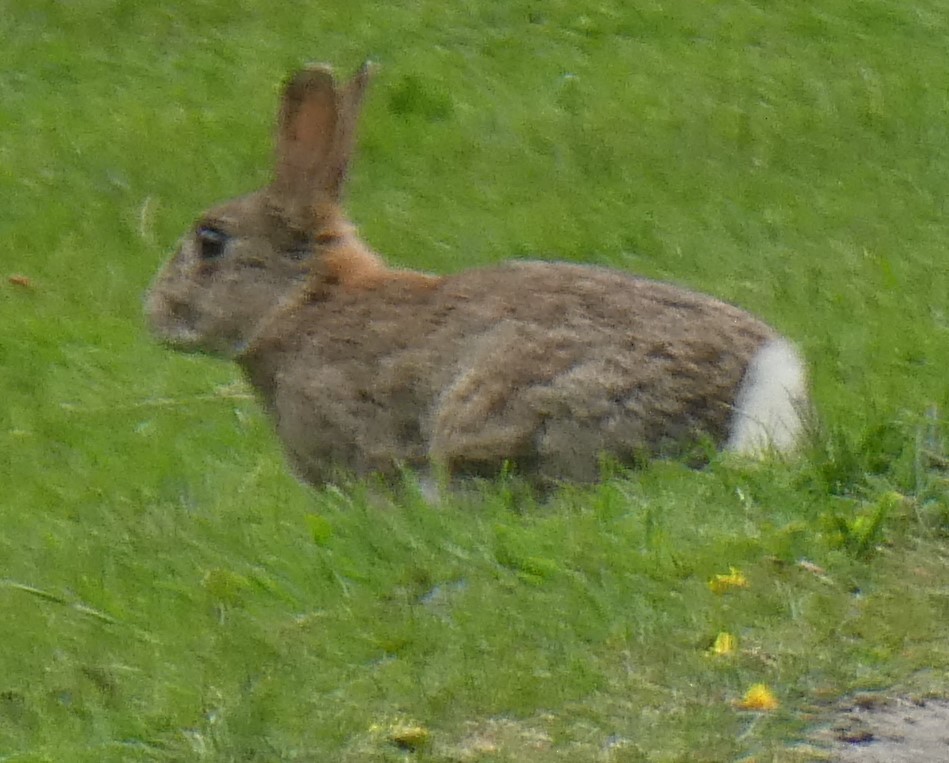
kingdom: Animalia
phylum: Chordata
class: Mammalia
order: Lagomorpha
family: Leporidae
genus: Oryctolagus
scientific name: Oryctolagus cuniculus
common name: European rabbit
